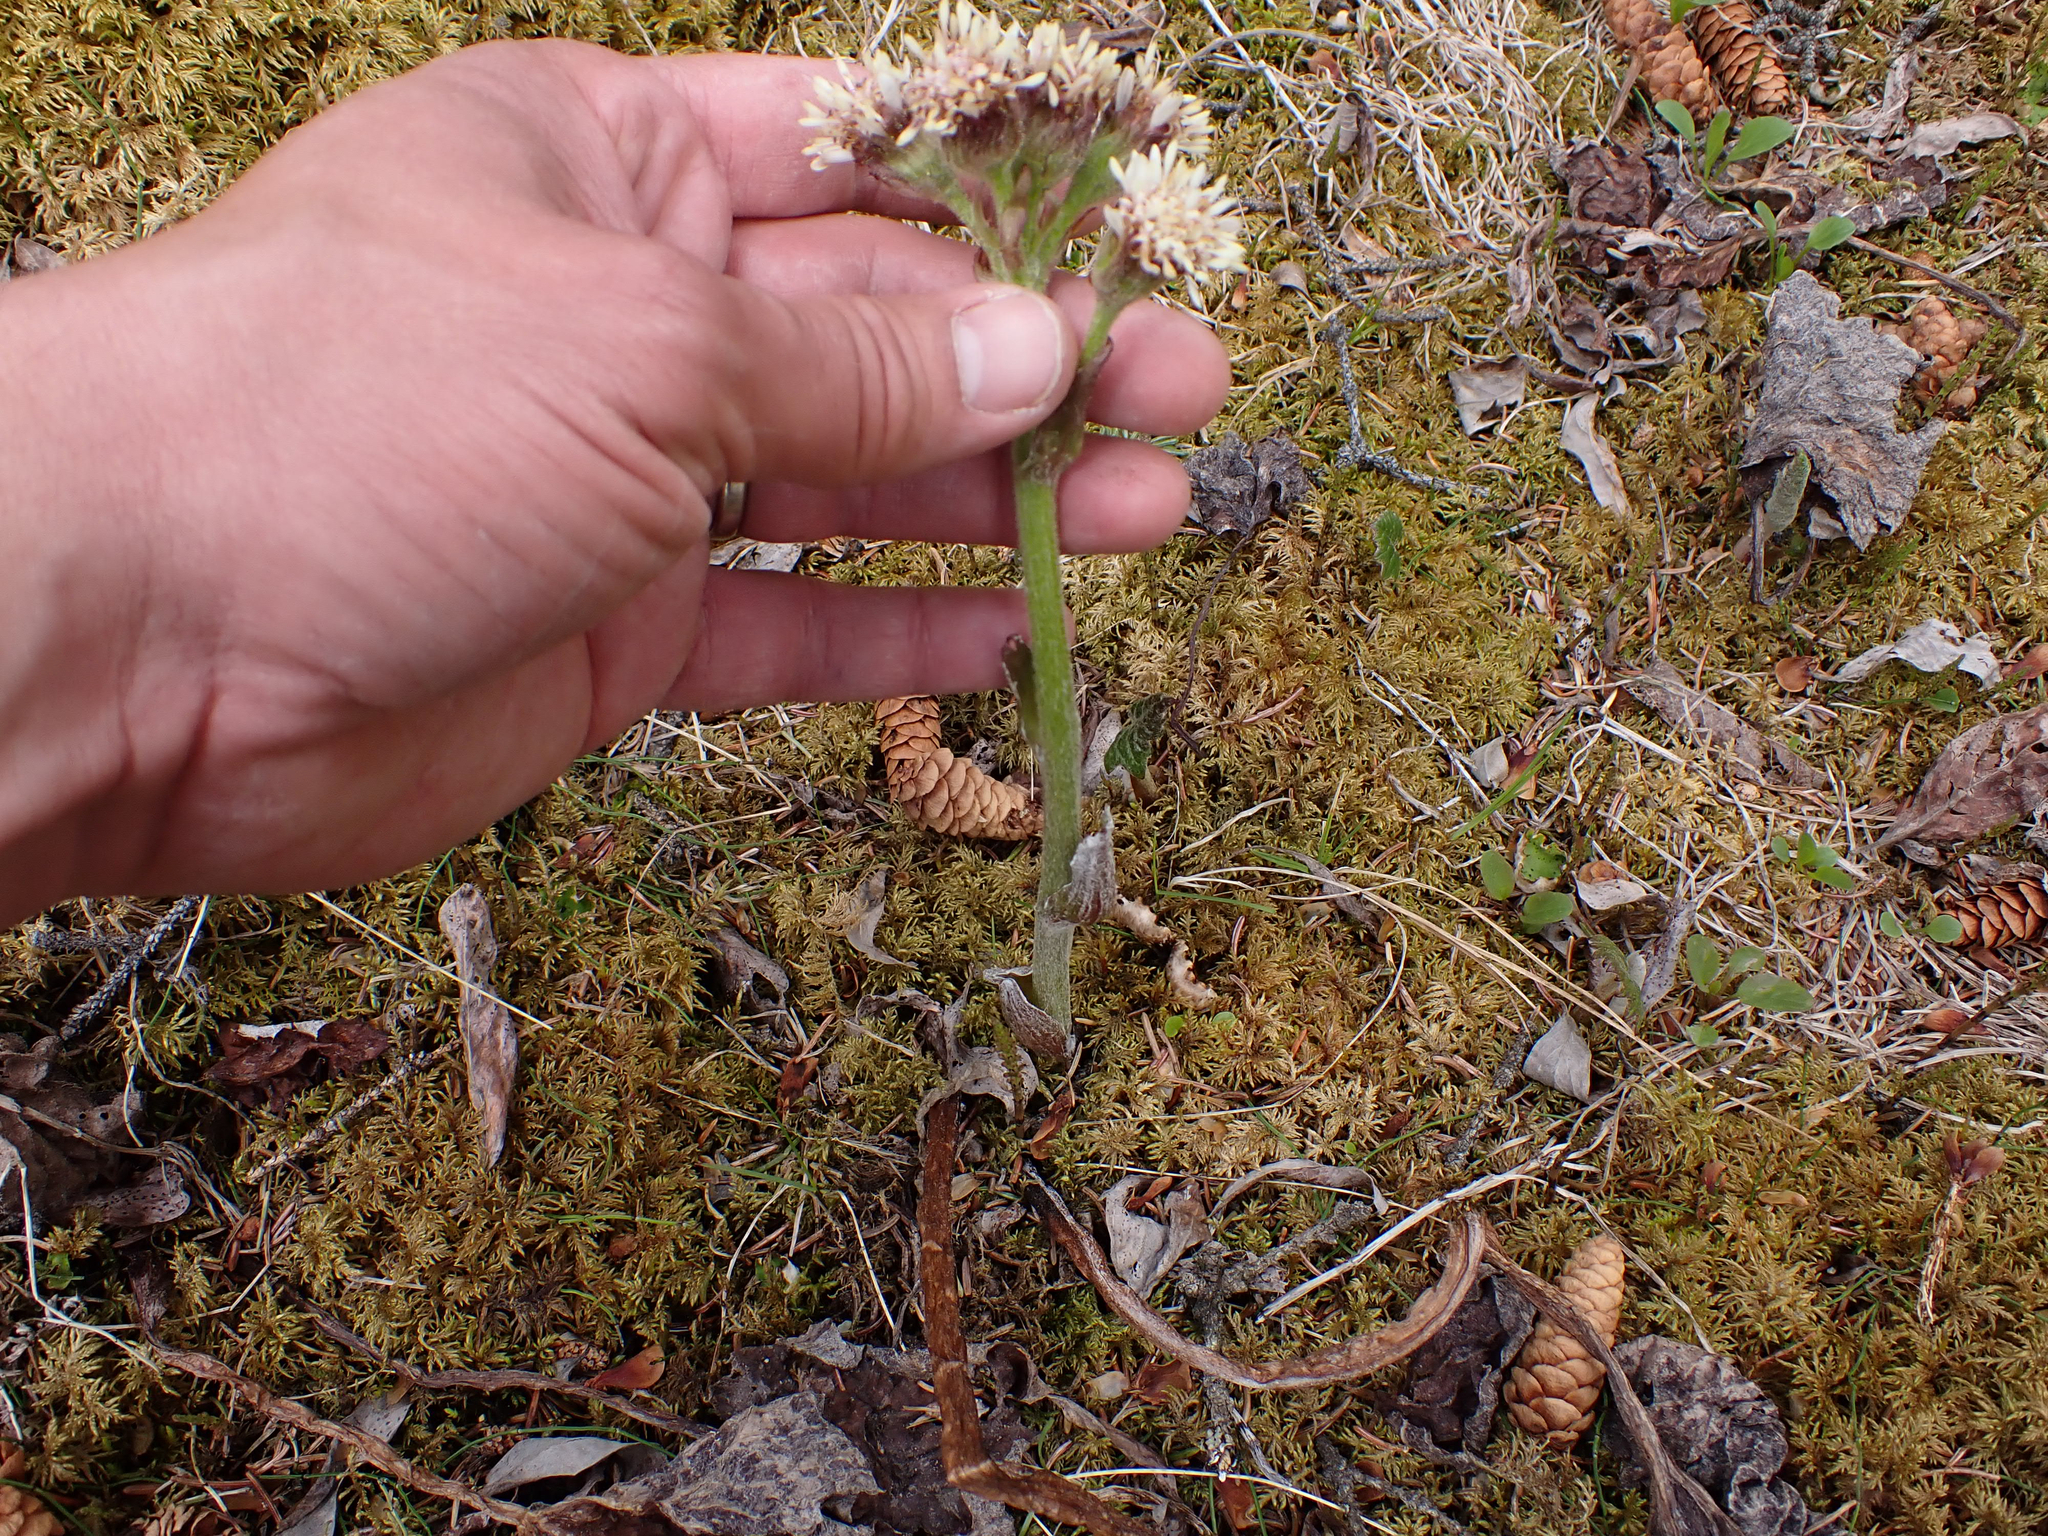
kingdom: Plantae
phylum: Tracheophyta
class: Magnoliopsida
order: Asterales
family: Asteraceae
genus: Petasites
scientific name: Petasites frigidus
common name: Arctic butterbur
